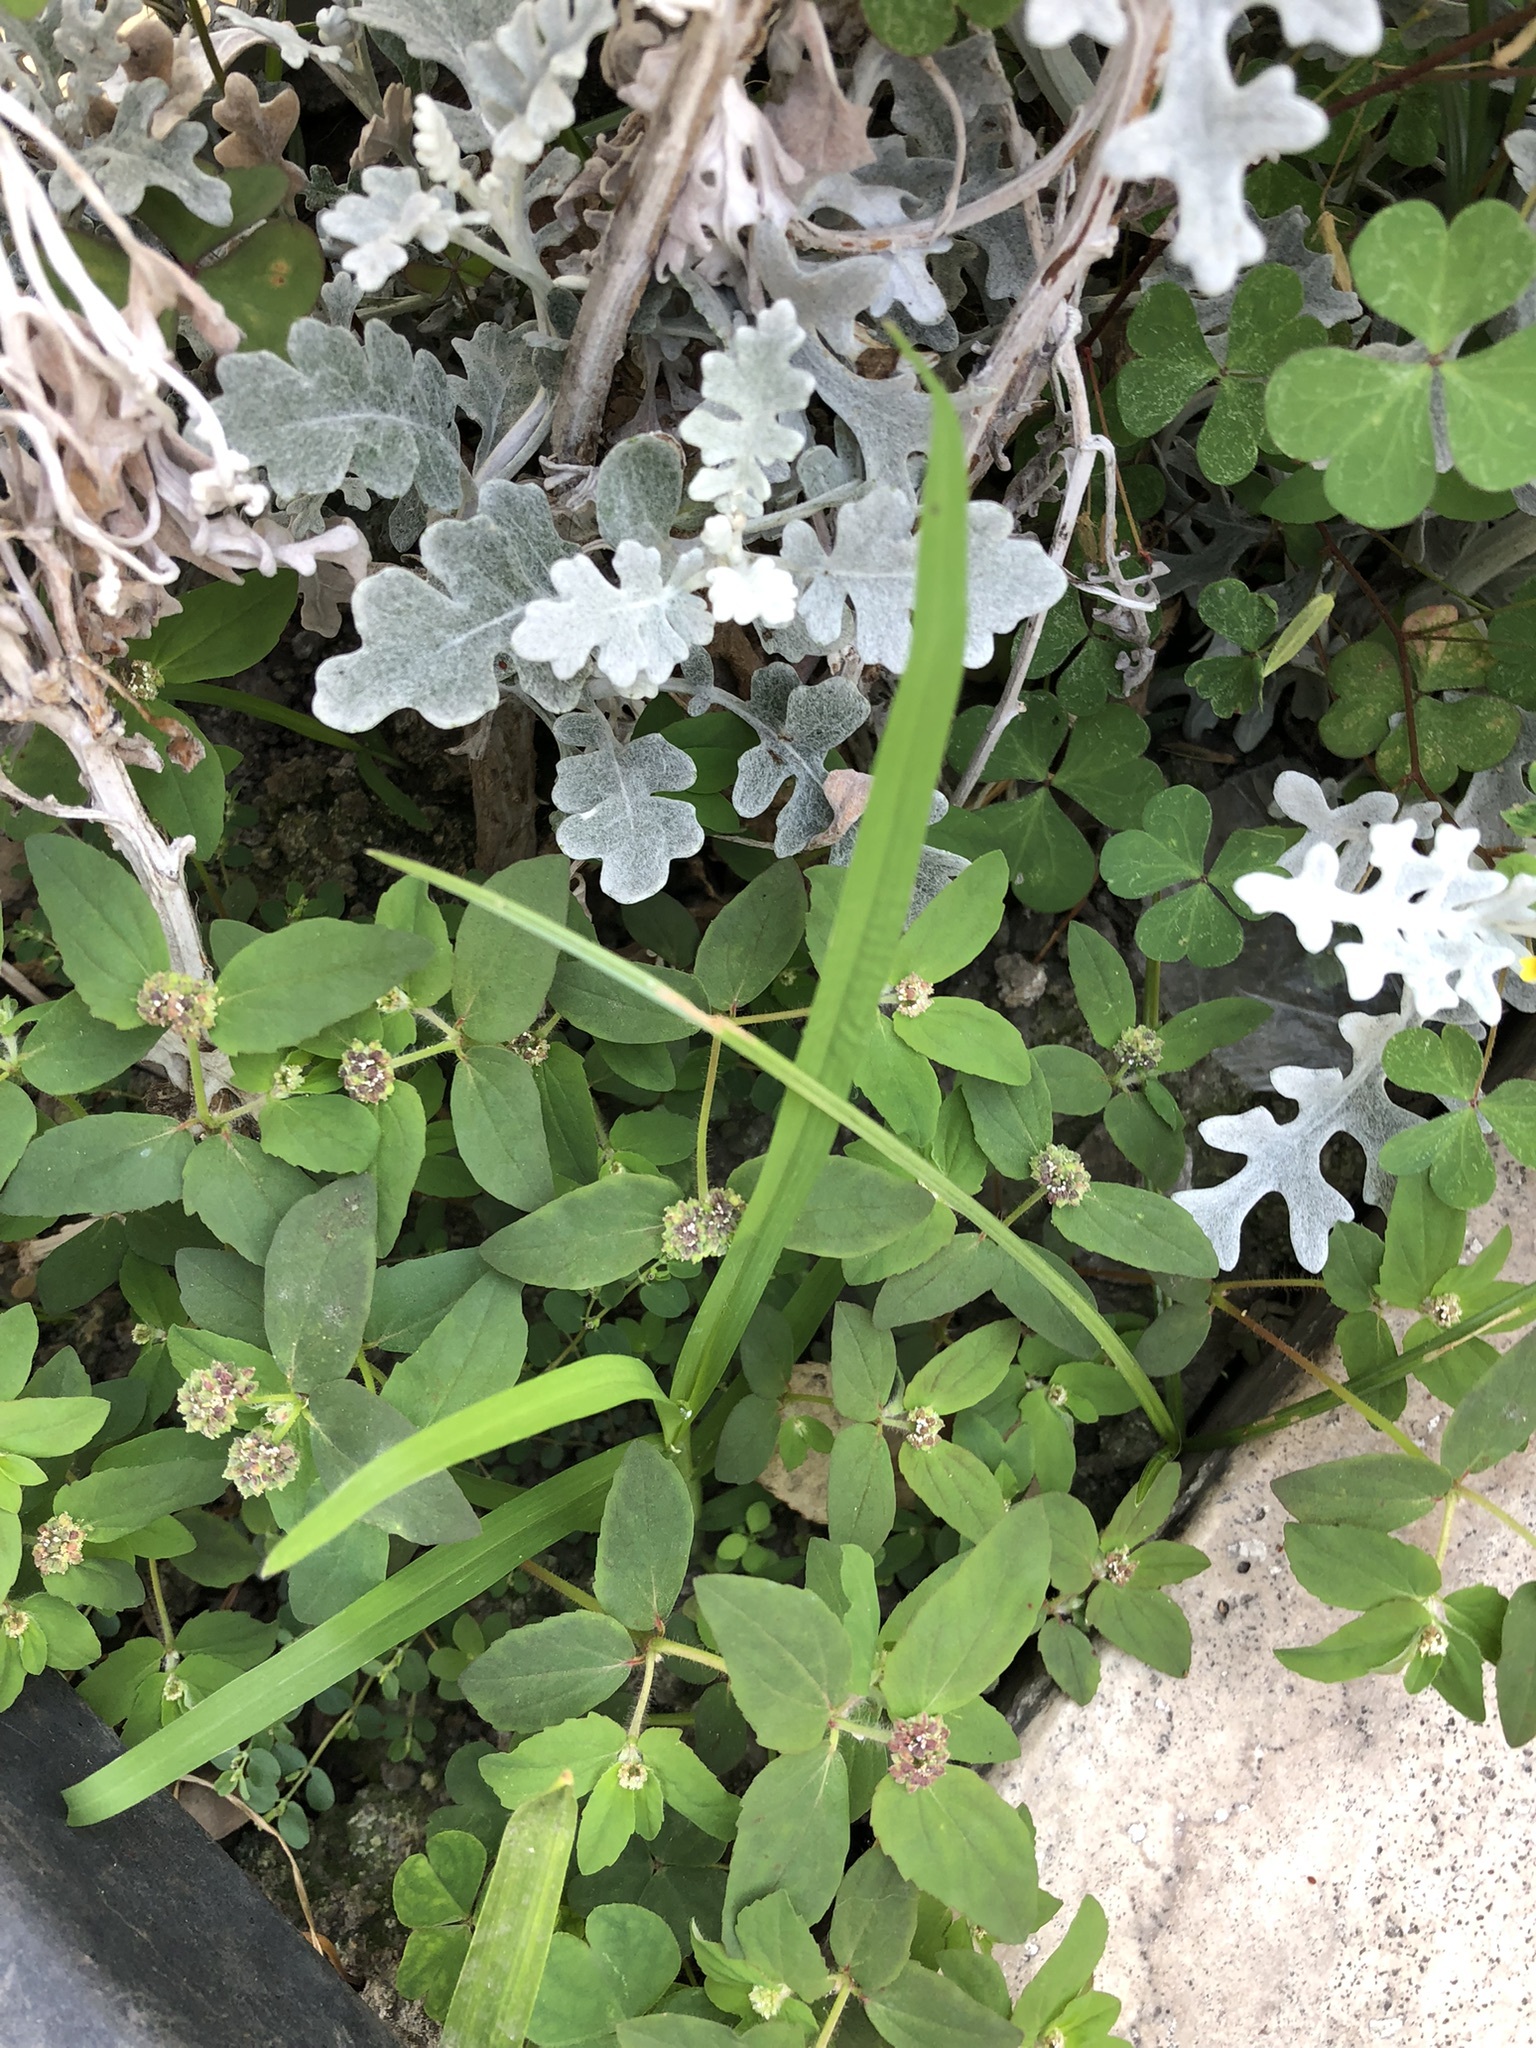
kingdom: Plantae
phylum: Tracheophyta
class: Magnoliopsida
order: Malpighiales
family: Euphorbiaceae
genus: Euphorbia
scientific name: Euphorbia ophthalmica
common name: Florida hammock sandmat
